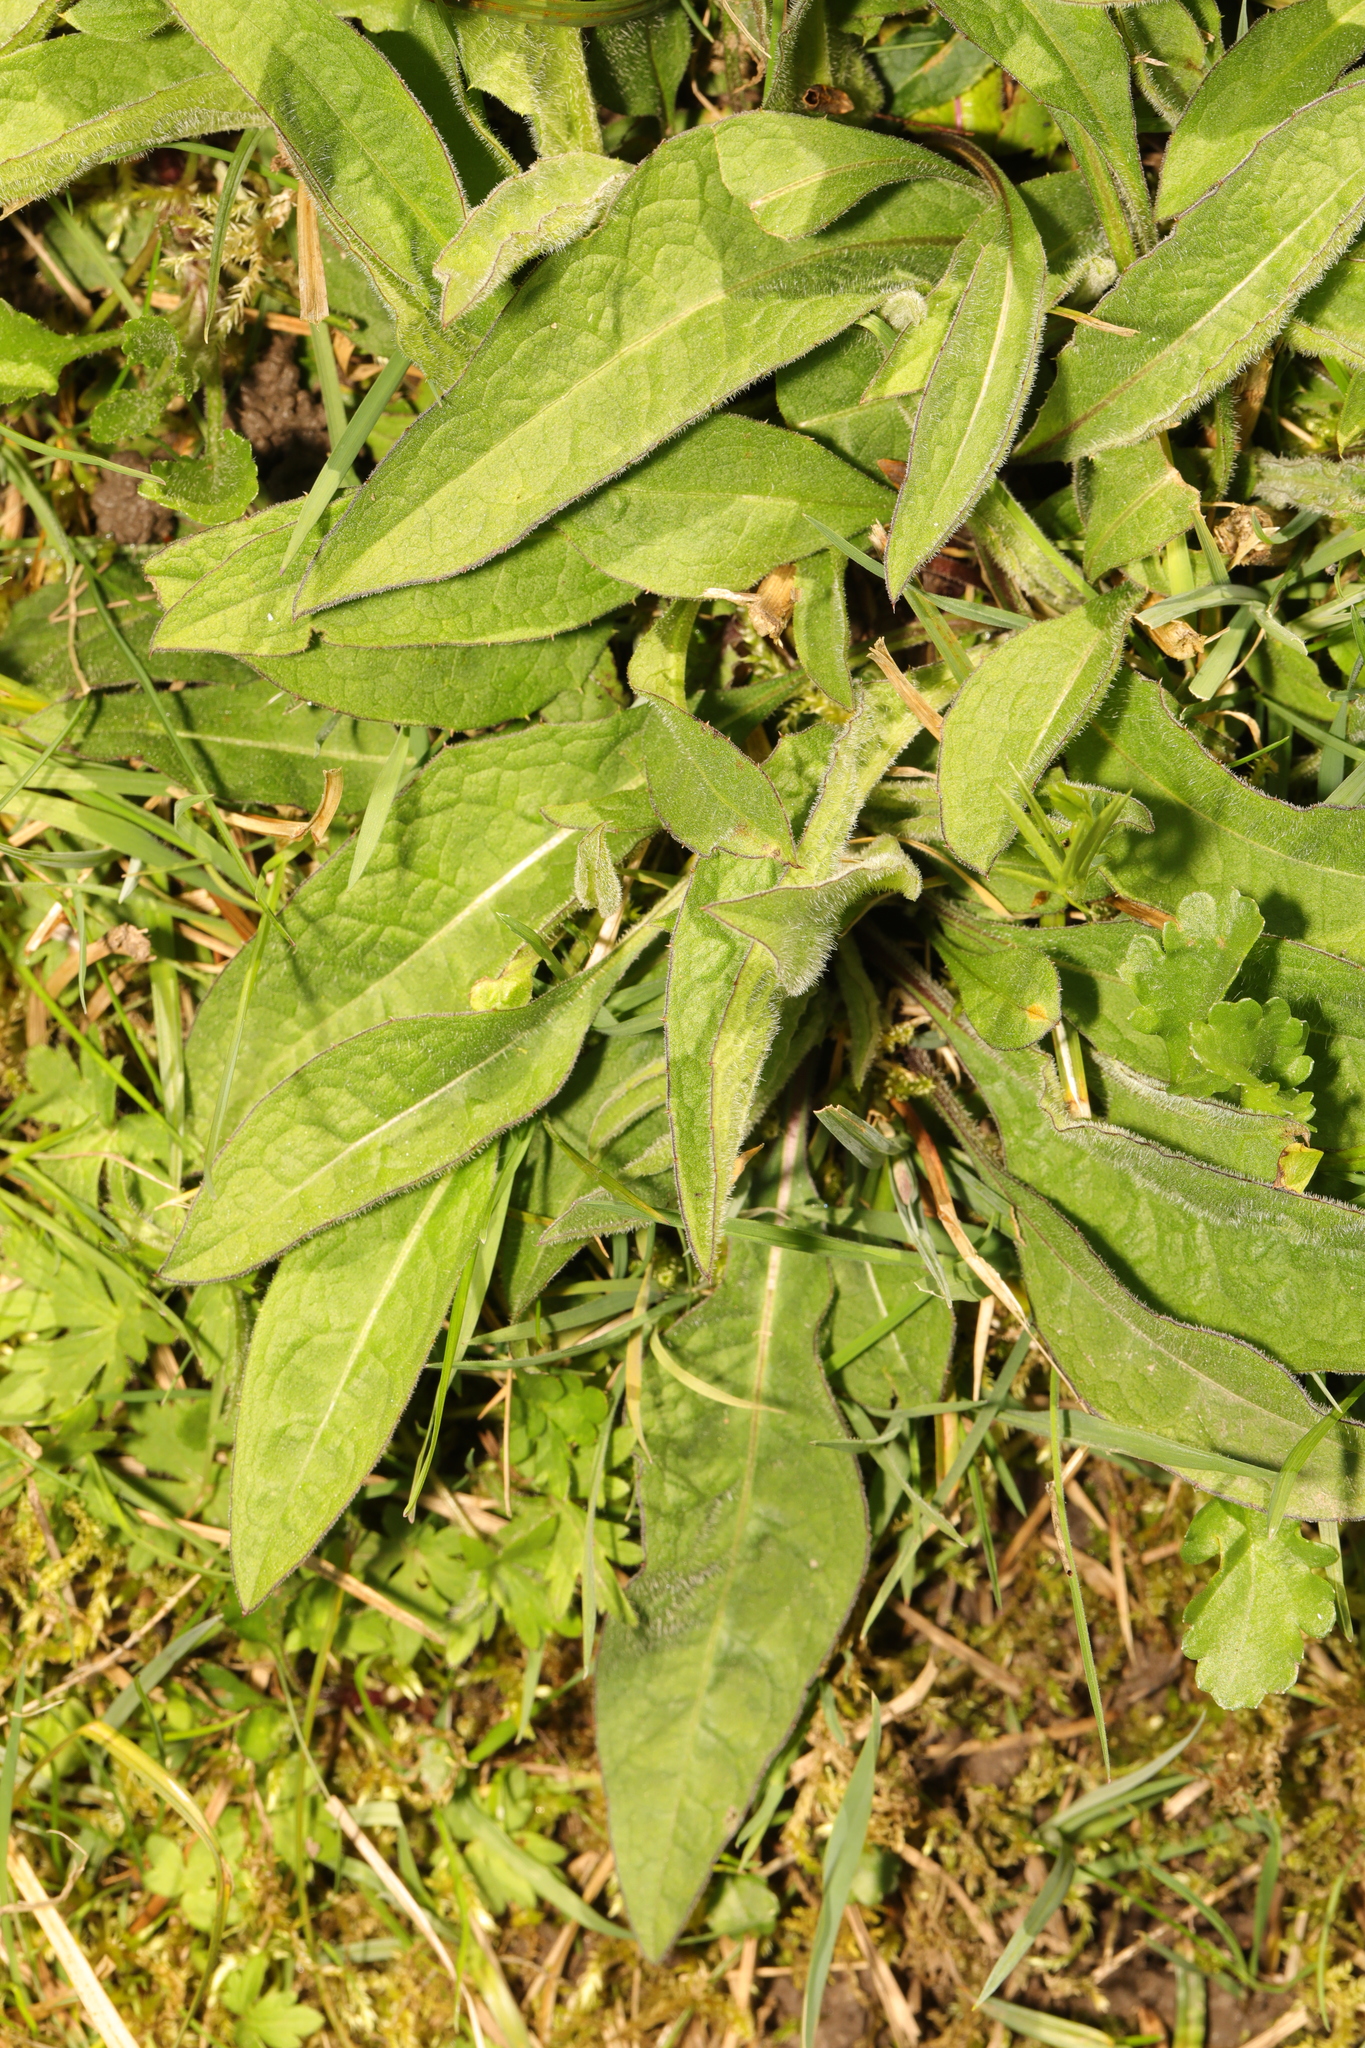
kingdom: Plantae
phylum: Tracheophyta
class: Magnoliopsida
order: Asterales
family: Asteraceae
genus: Centaurea
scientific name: Centaurea nigra
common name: Lesser knapweed
